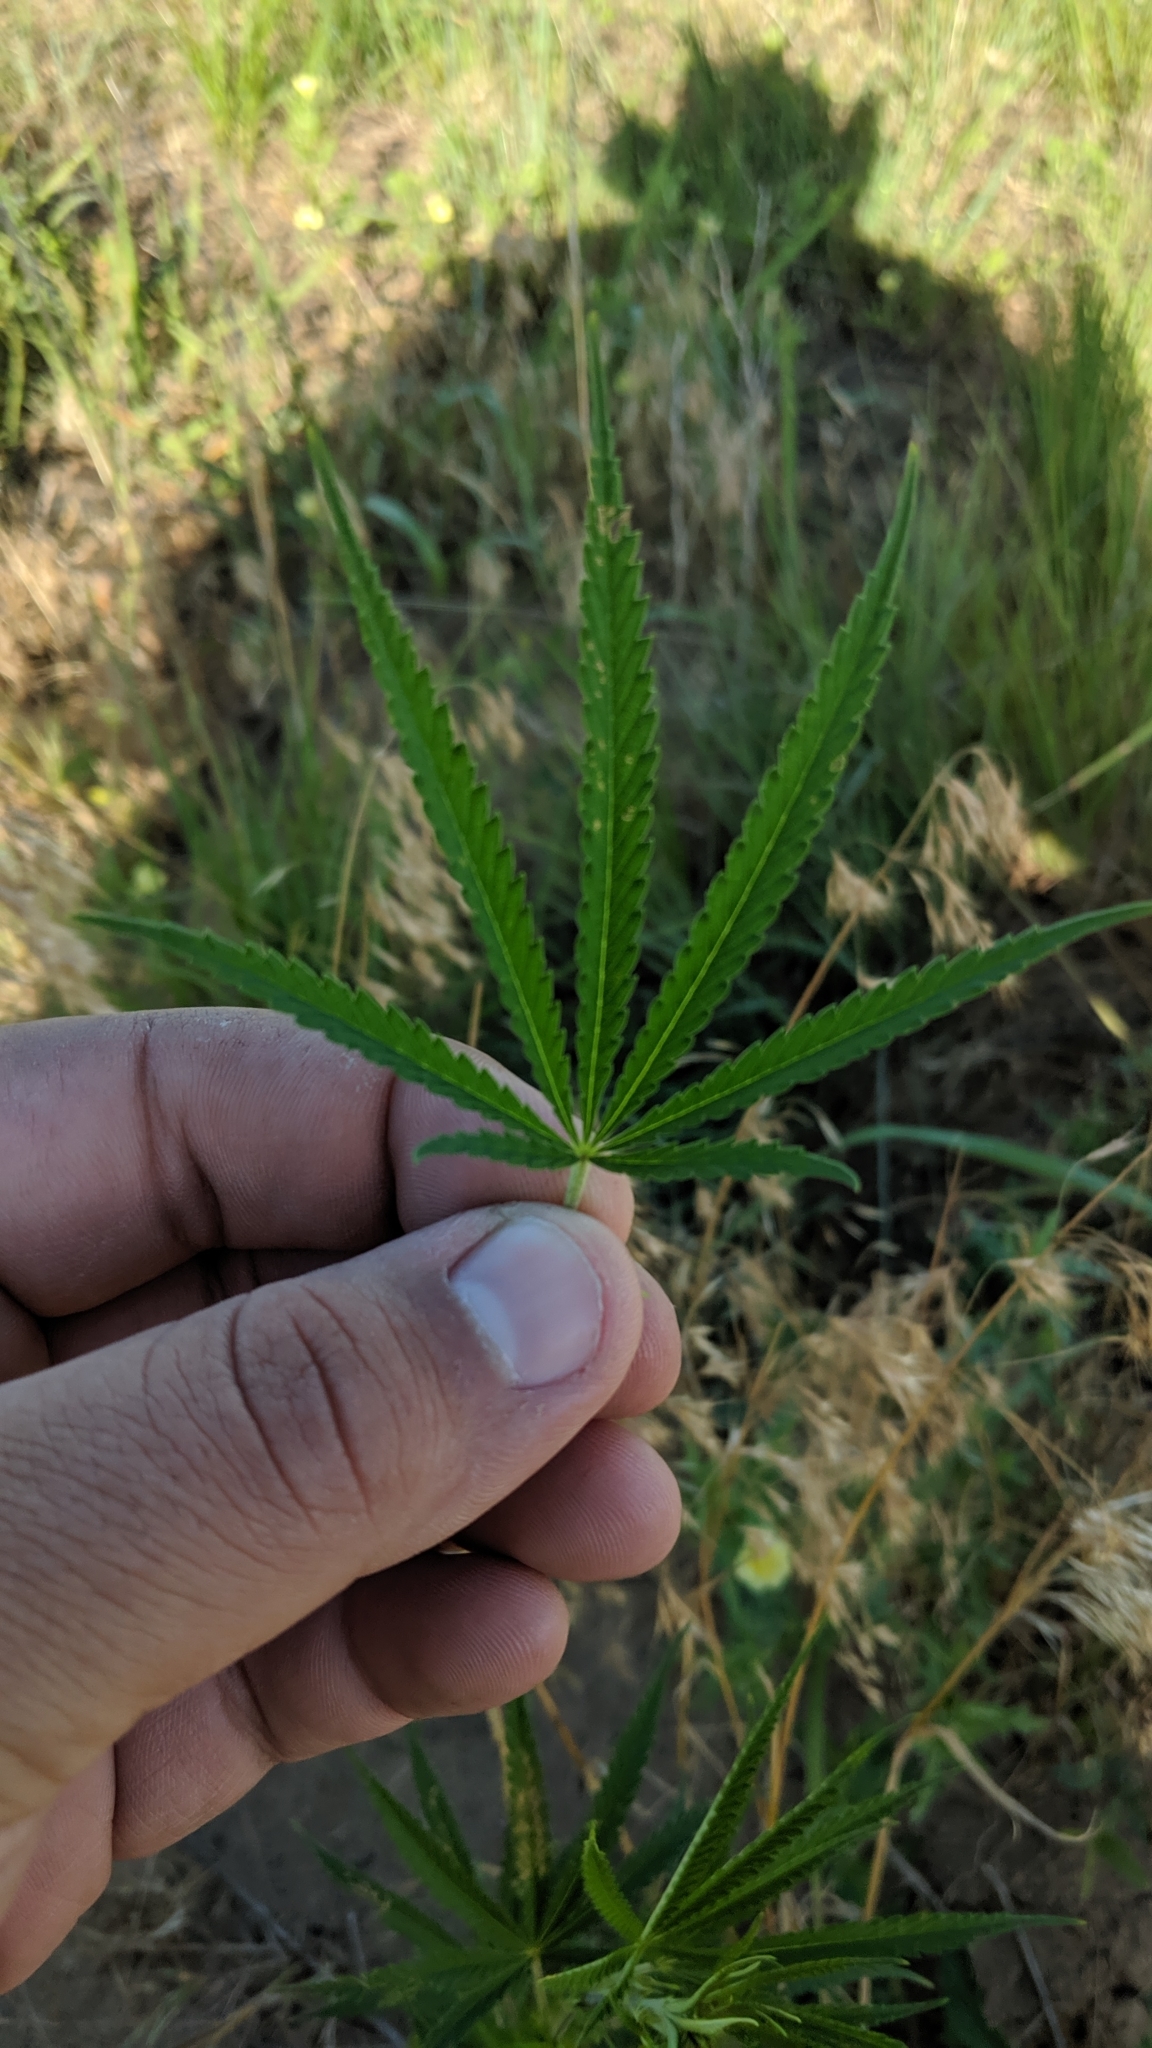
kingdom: Plantae
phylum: Tracheophyta
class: Magnoliopsida
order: Rosales
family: Cannabaceae
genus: Cannabis
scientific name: Cannabis sativa
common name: Hemp
